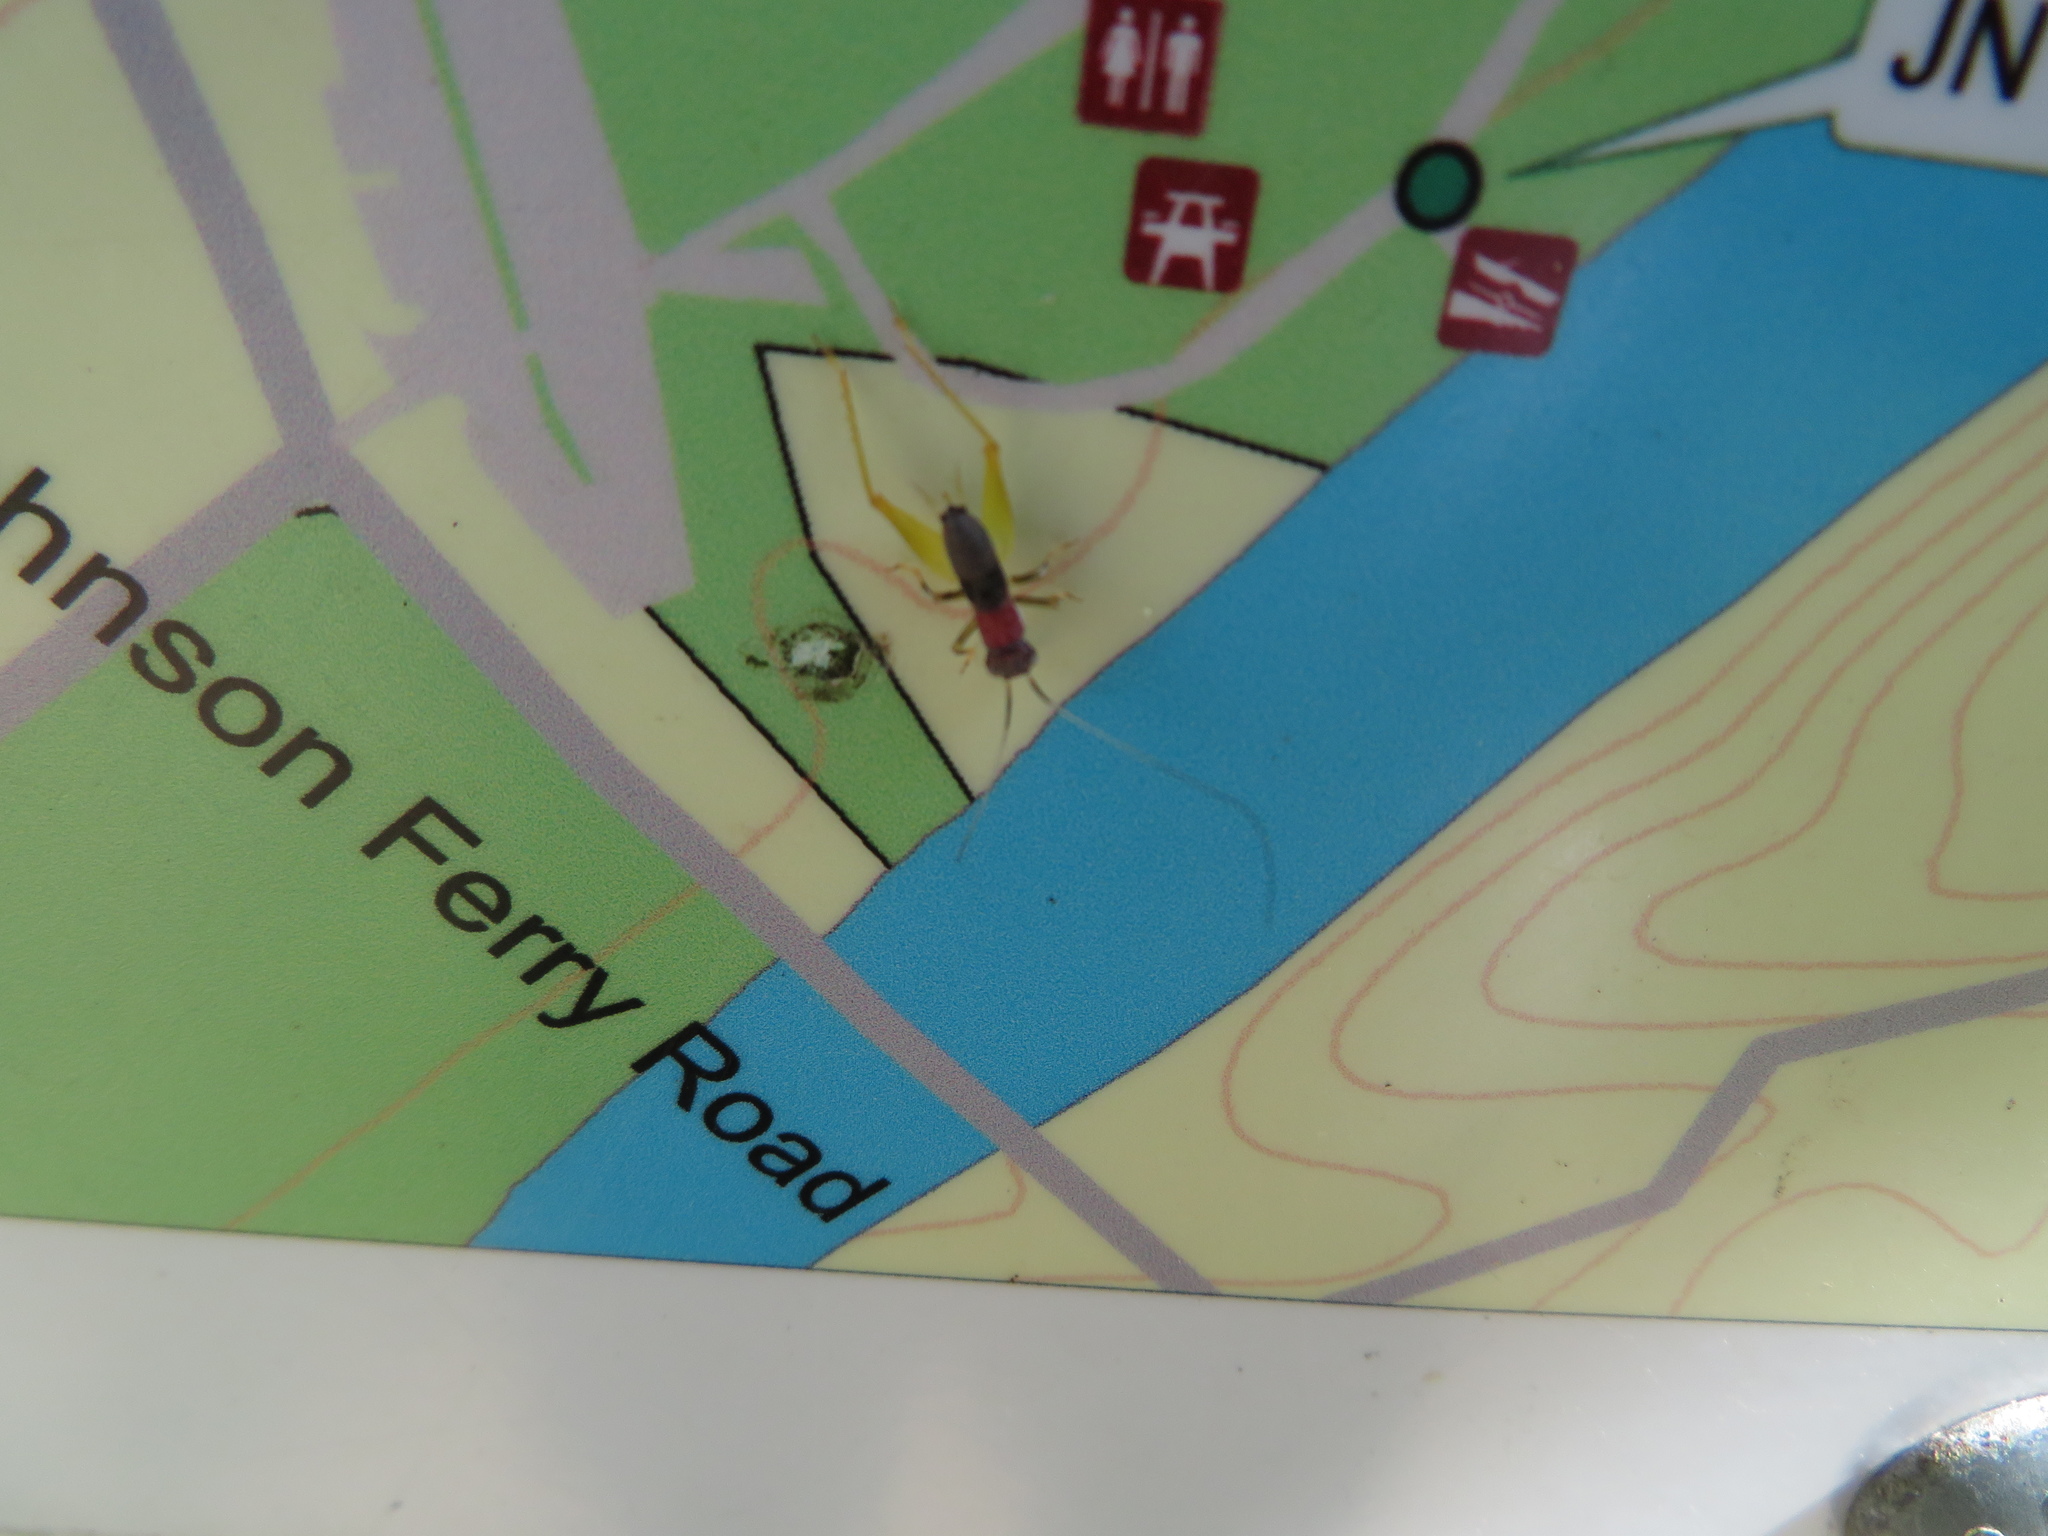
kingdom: Animalia
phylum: Arthropoda
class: Insecta
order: Orthoptera
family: Trigonidiidae
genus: Phyllopalpus
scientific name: Phyllopalpus pulchellus
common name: Handsome trig
